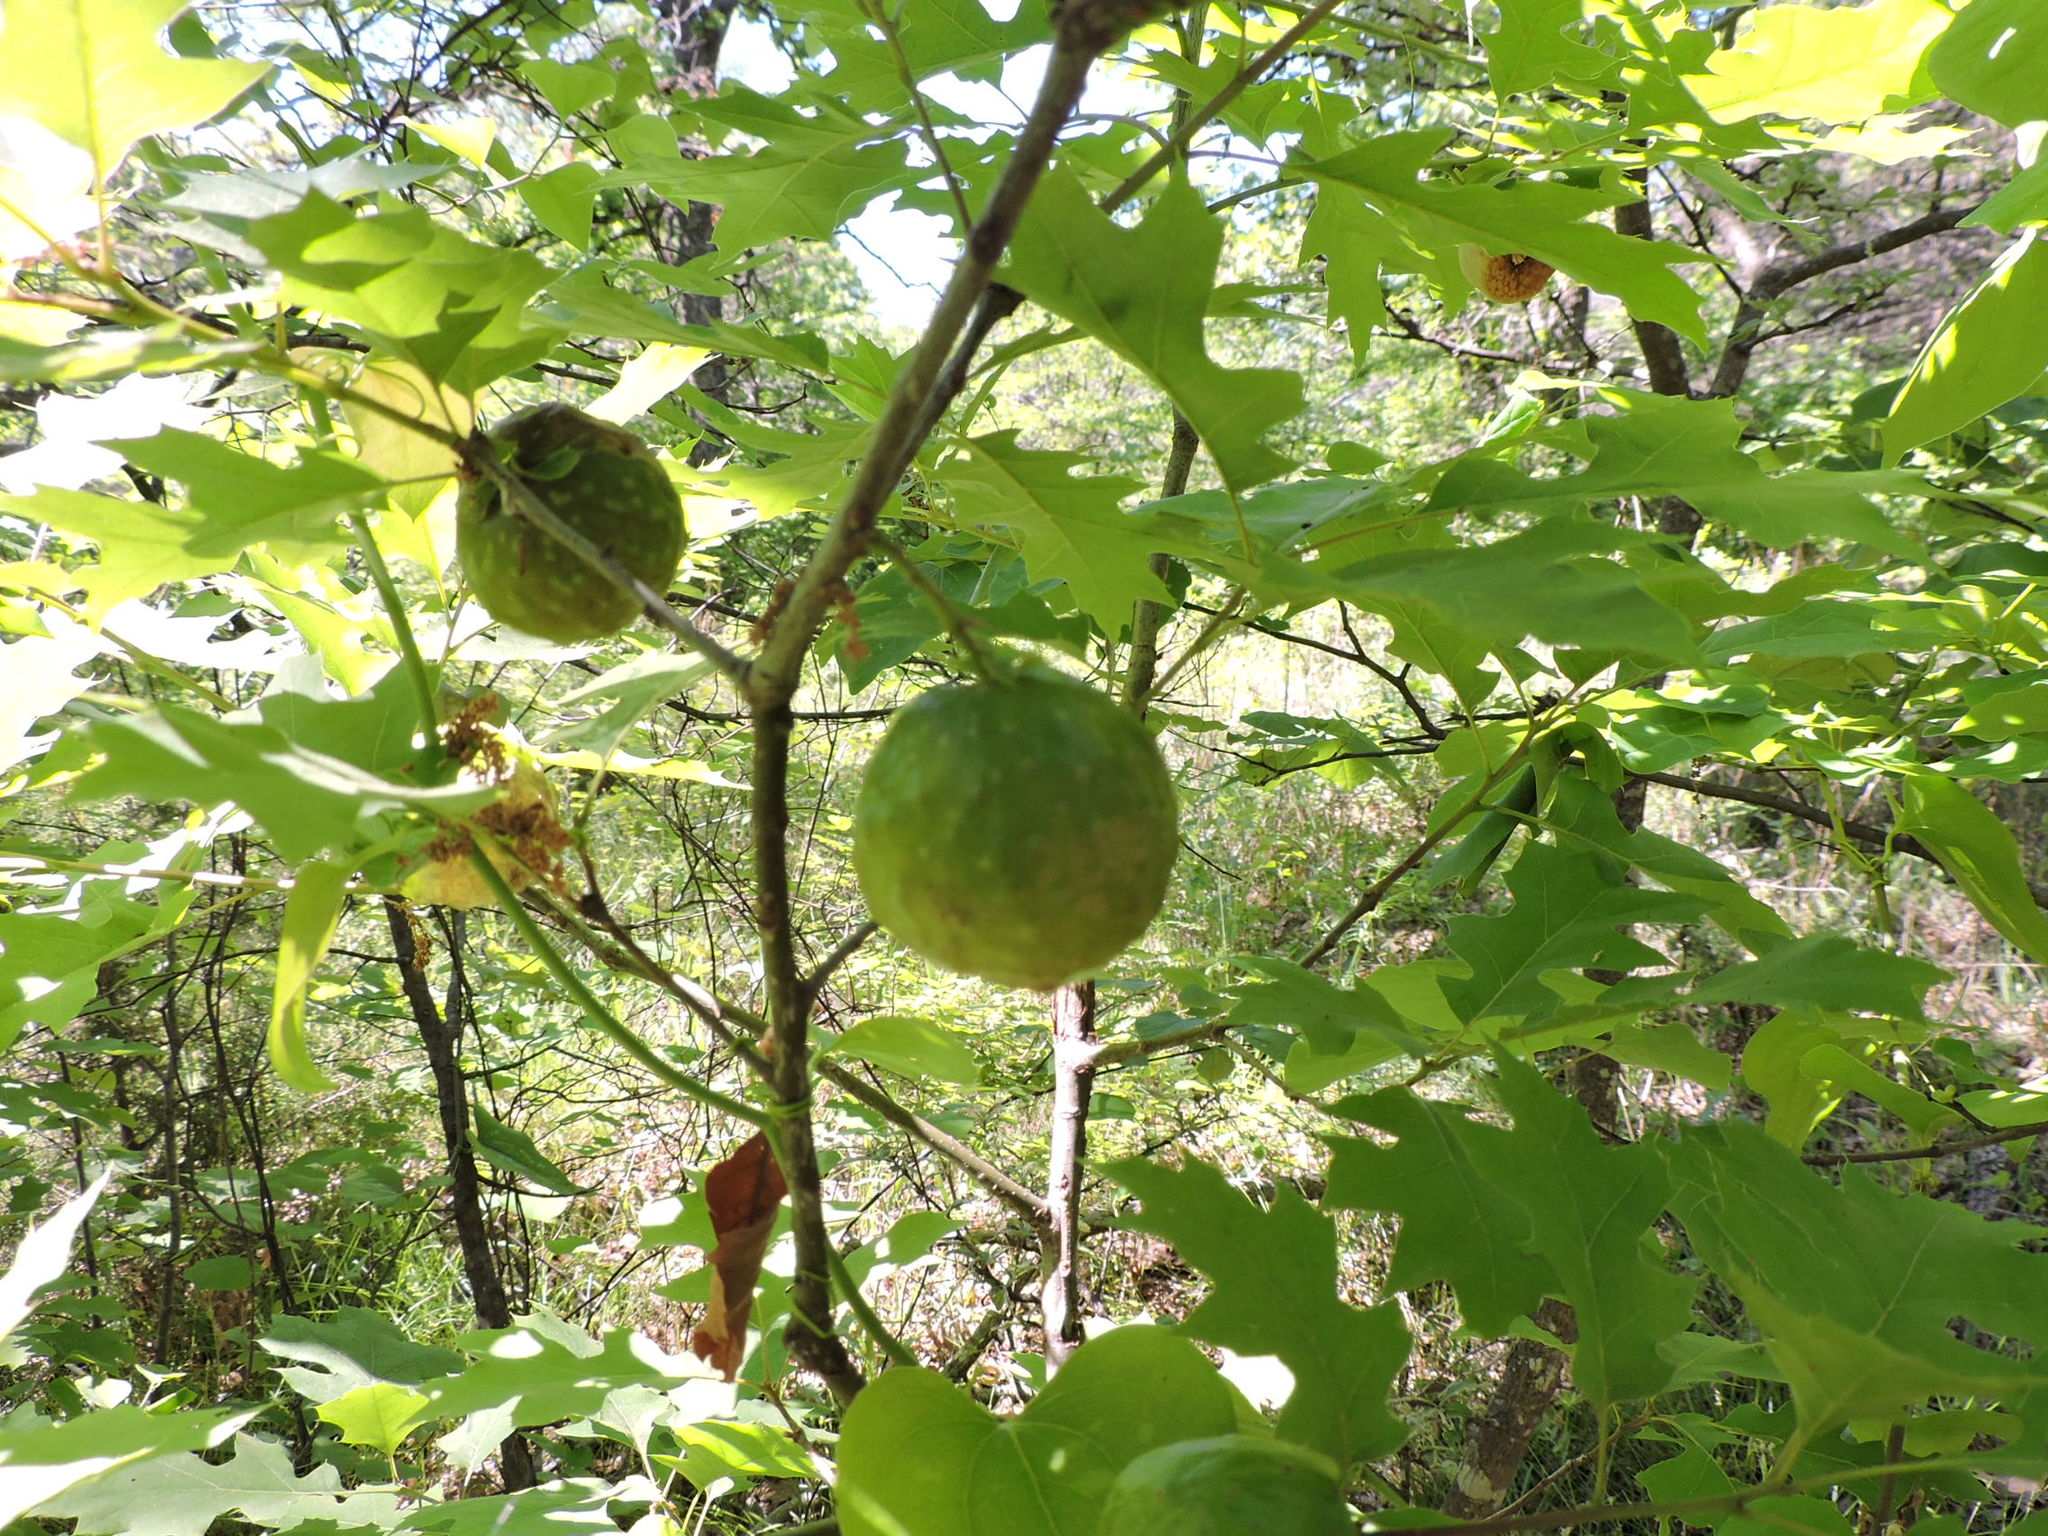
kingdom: Animalia
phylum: Arthropoda
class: Insecta
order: Hymenoptera
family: Cynipidae
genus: Amphibolips
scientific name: Amphibolips
